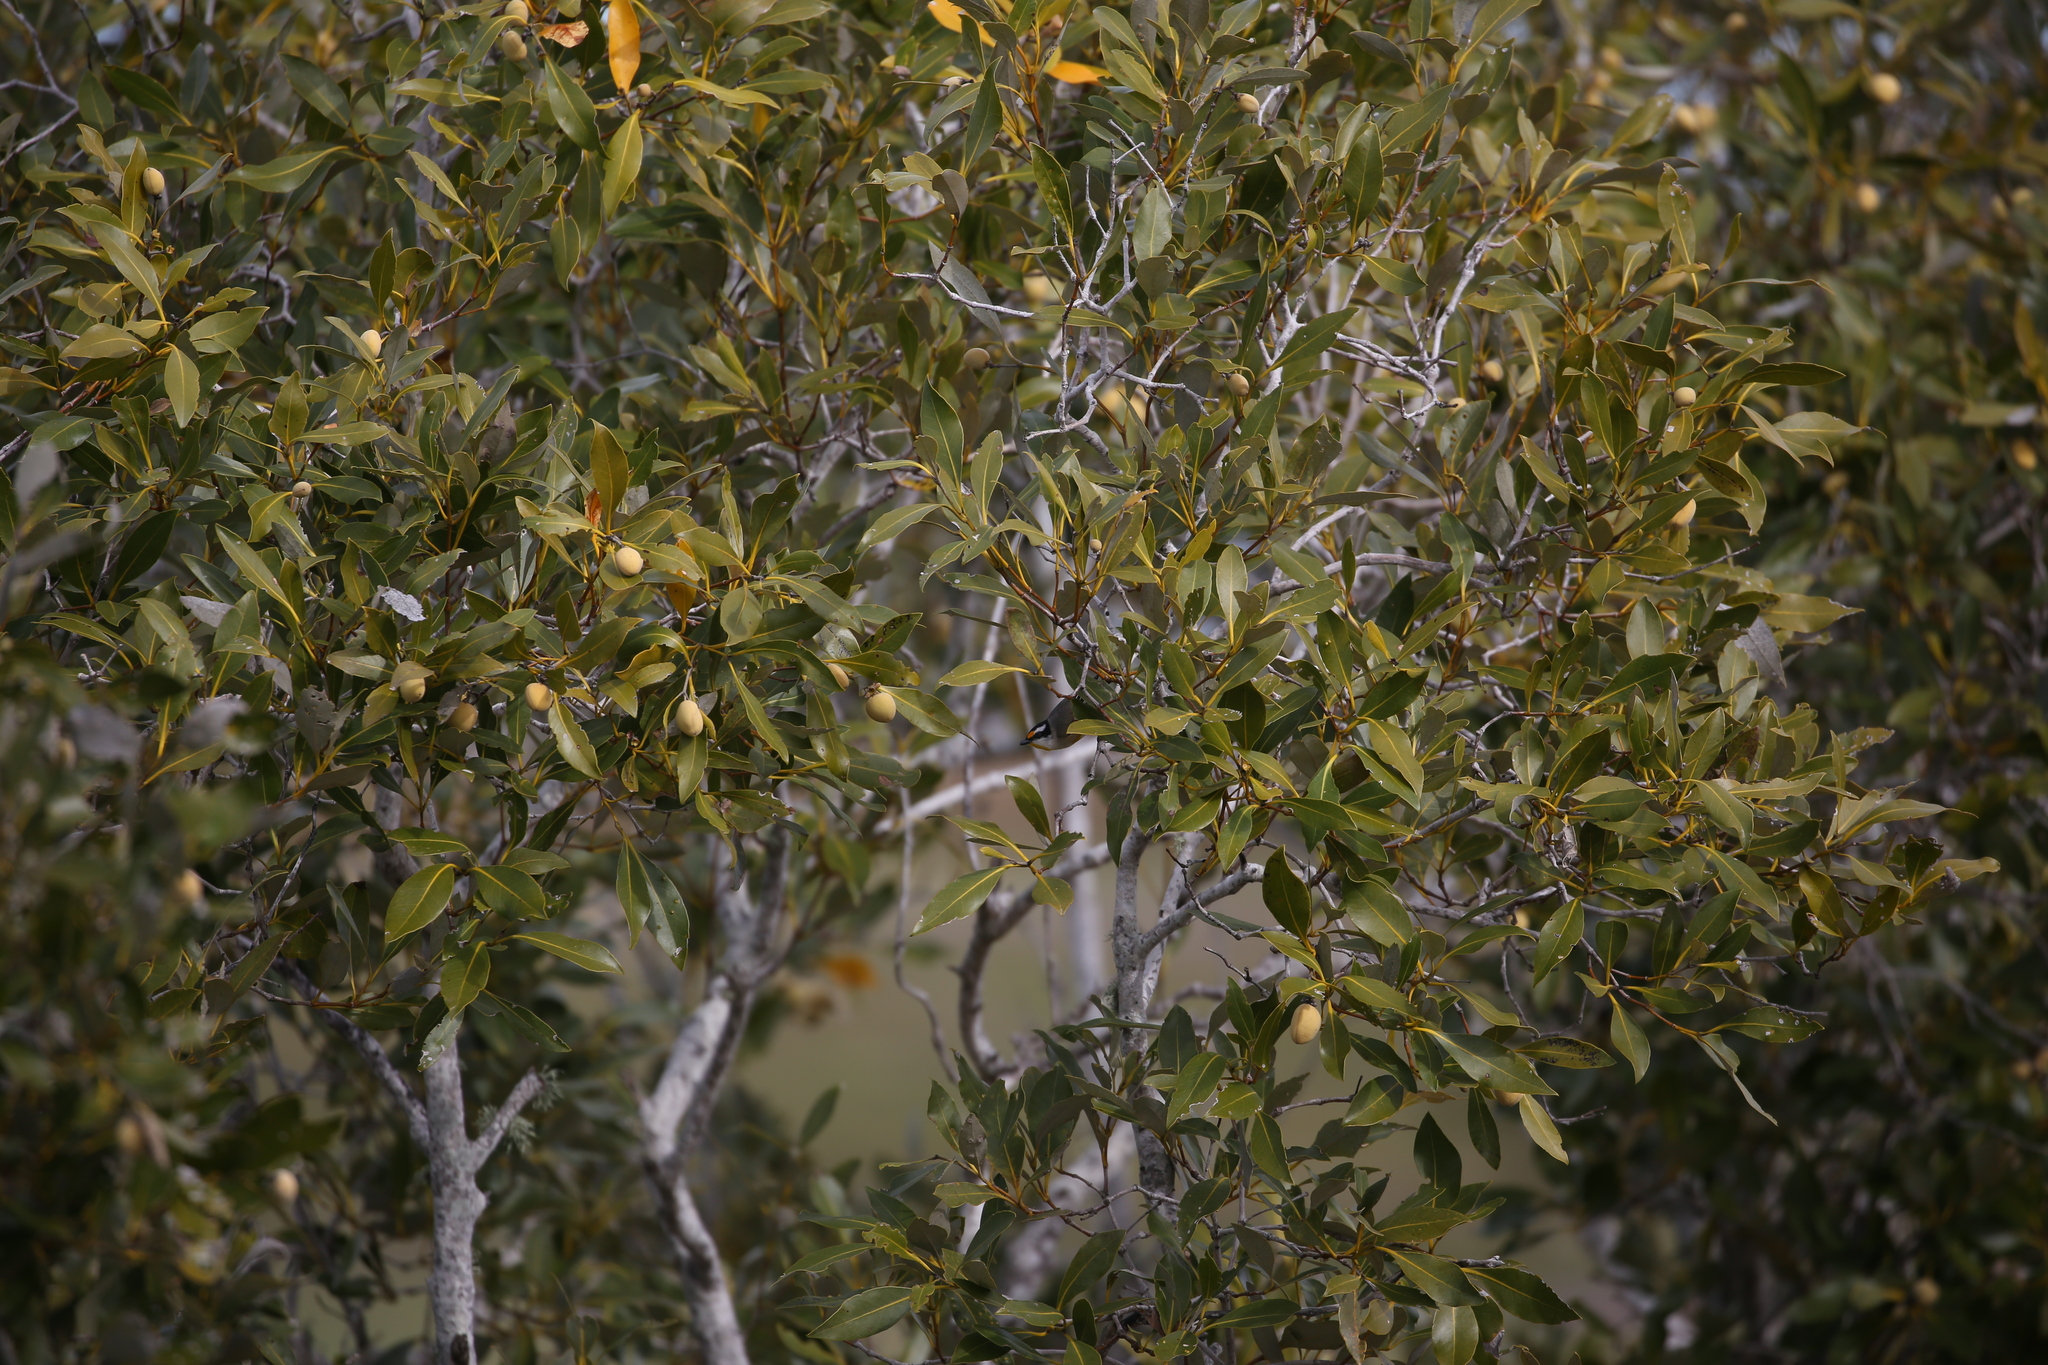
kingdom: Animalia
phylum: Chordata
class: Aves
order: Passeriformes
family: Pardalotidae
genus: Pardalotus
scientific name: Pardalotus striatus
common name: Striated pardalote
